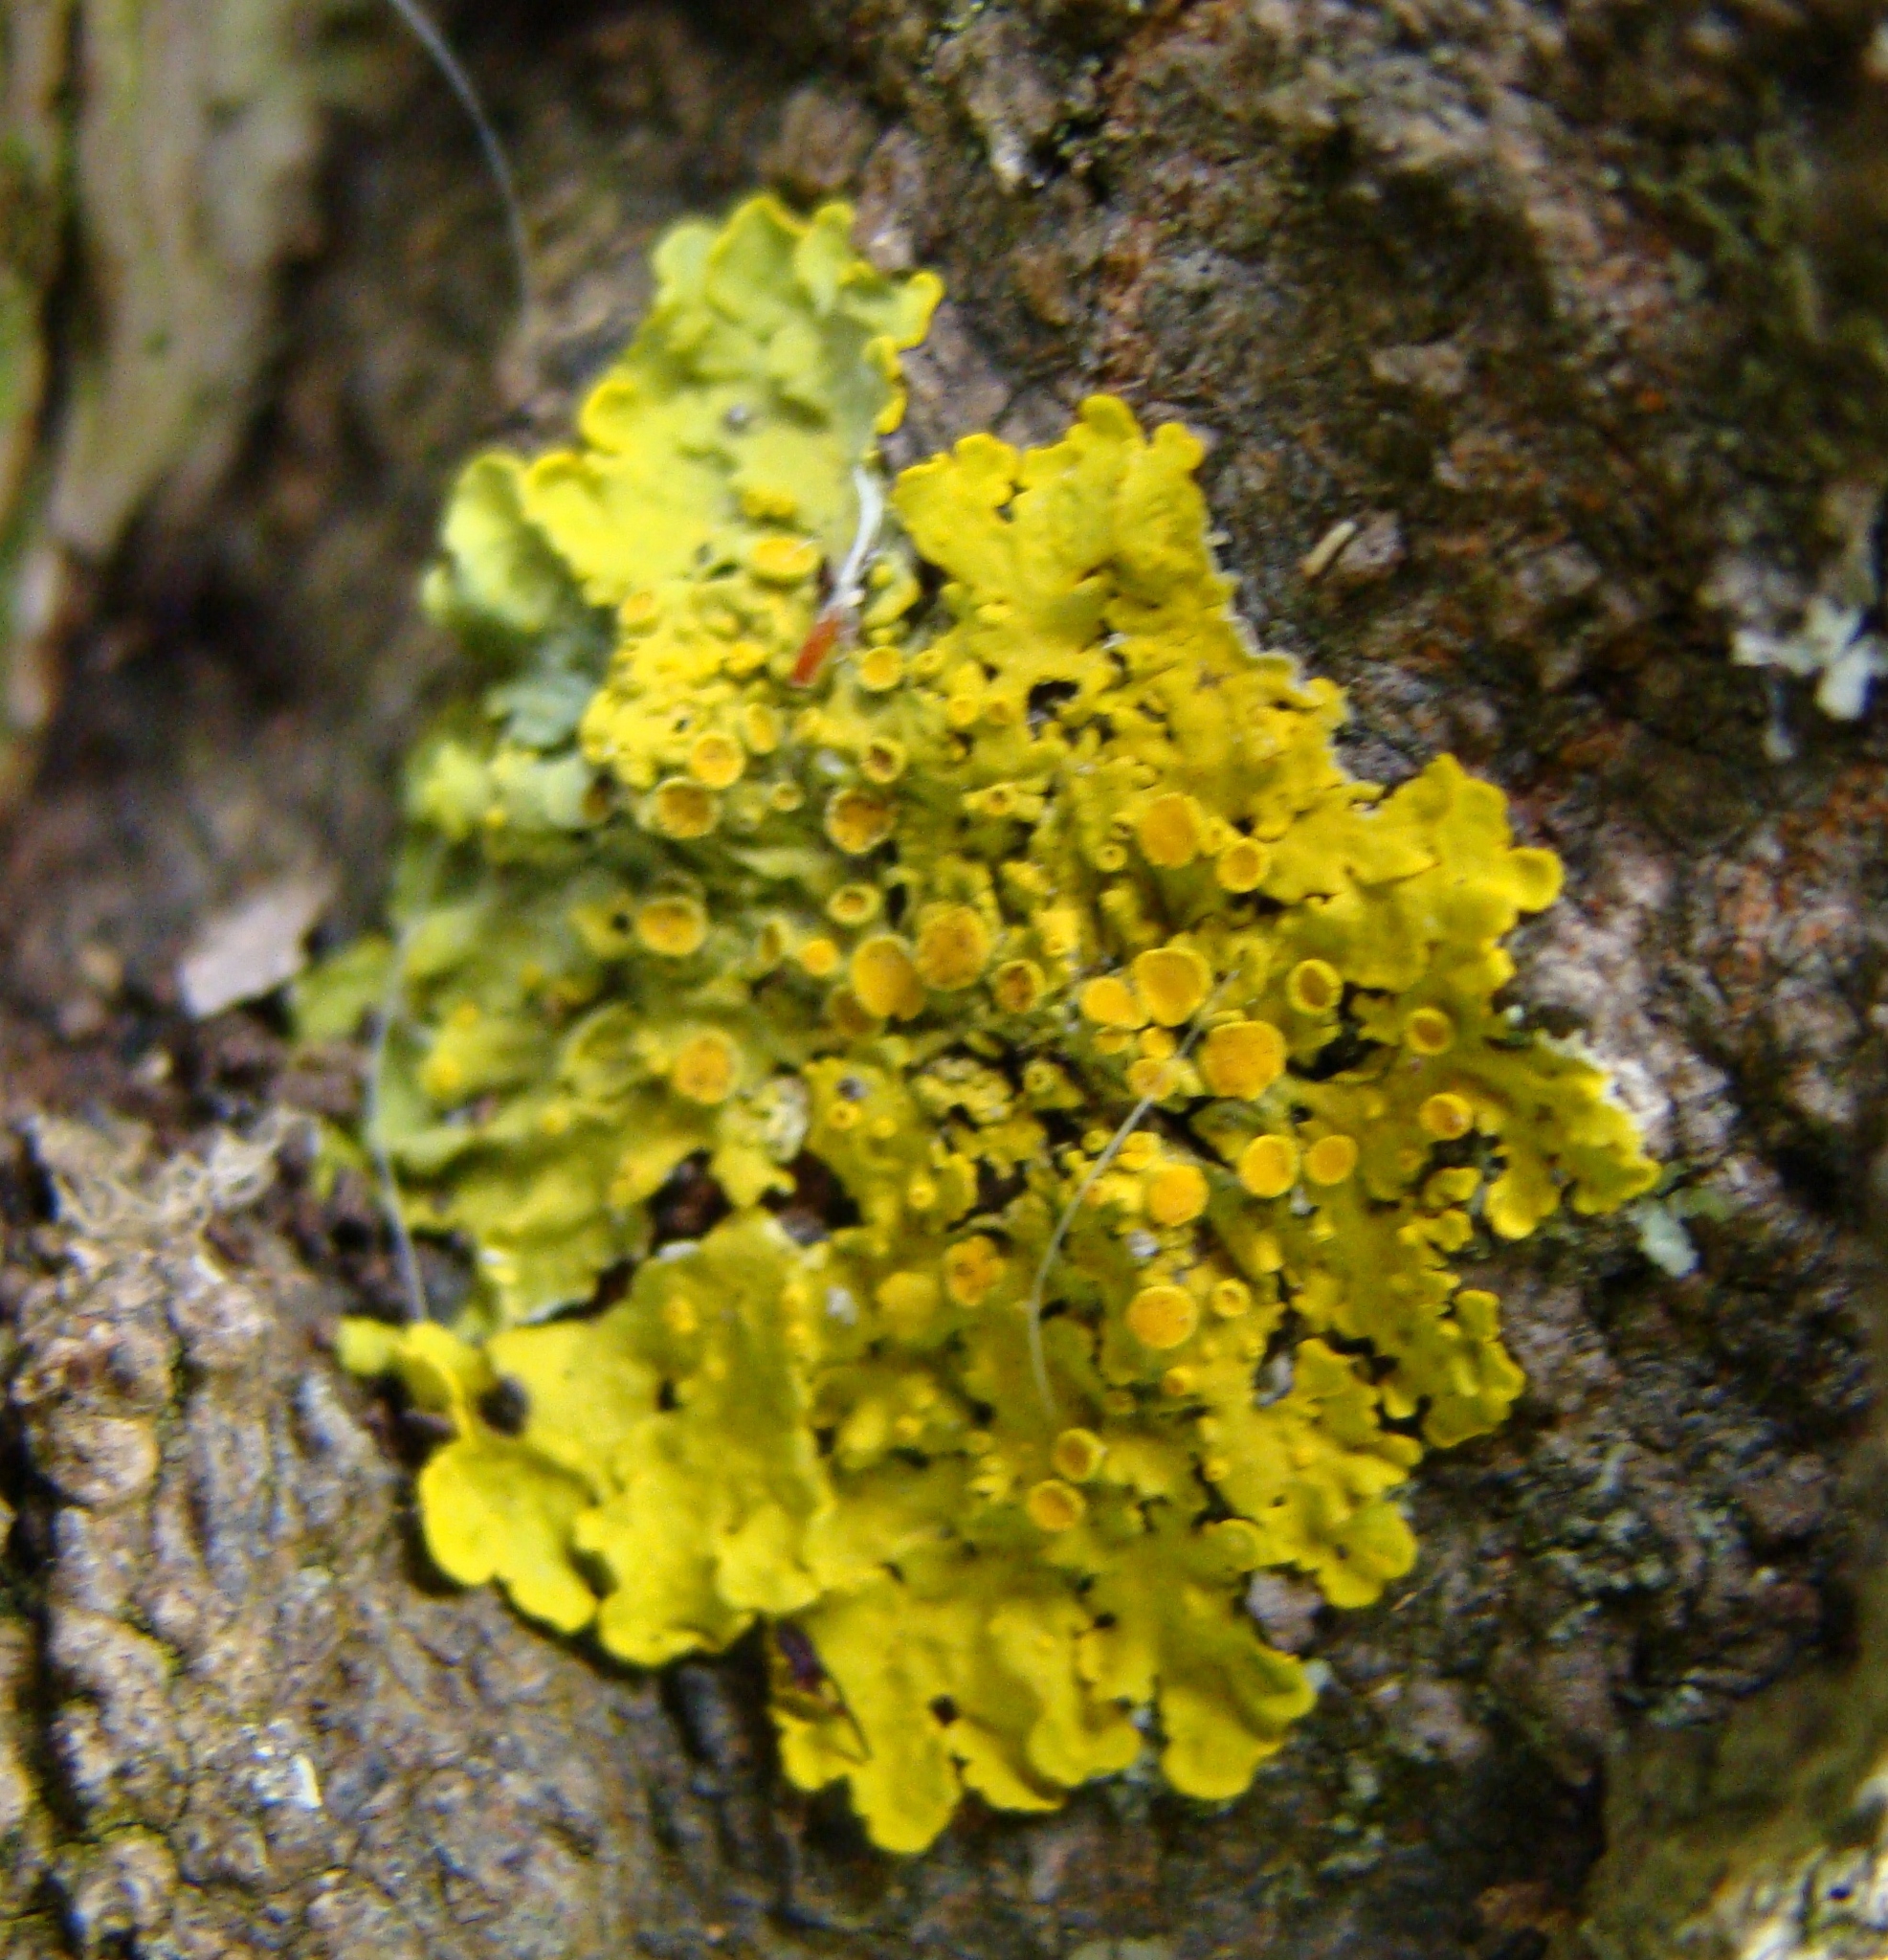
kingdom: Fungi
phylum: Ascomycota
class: Lecanoromycetes
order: Teloschistales
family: Teloschistaceae
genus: Xanthoria
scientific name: Xanthoria parietina
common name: Common orange lichen
